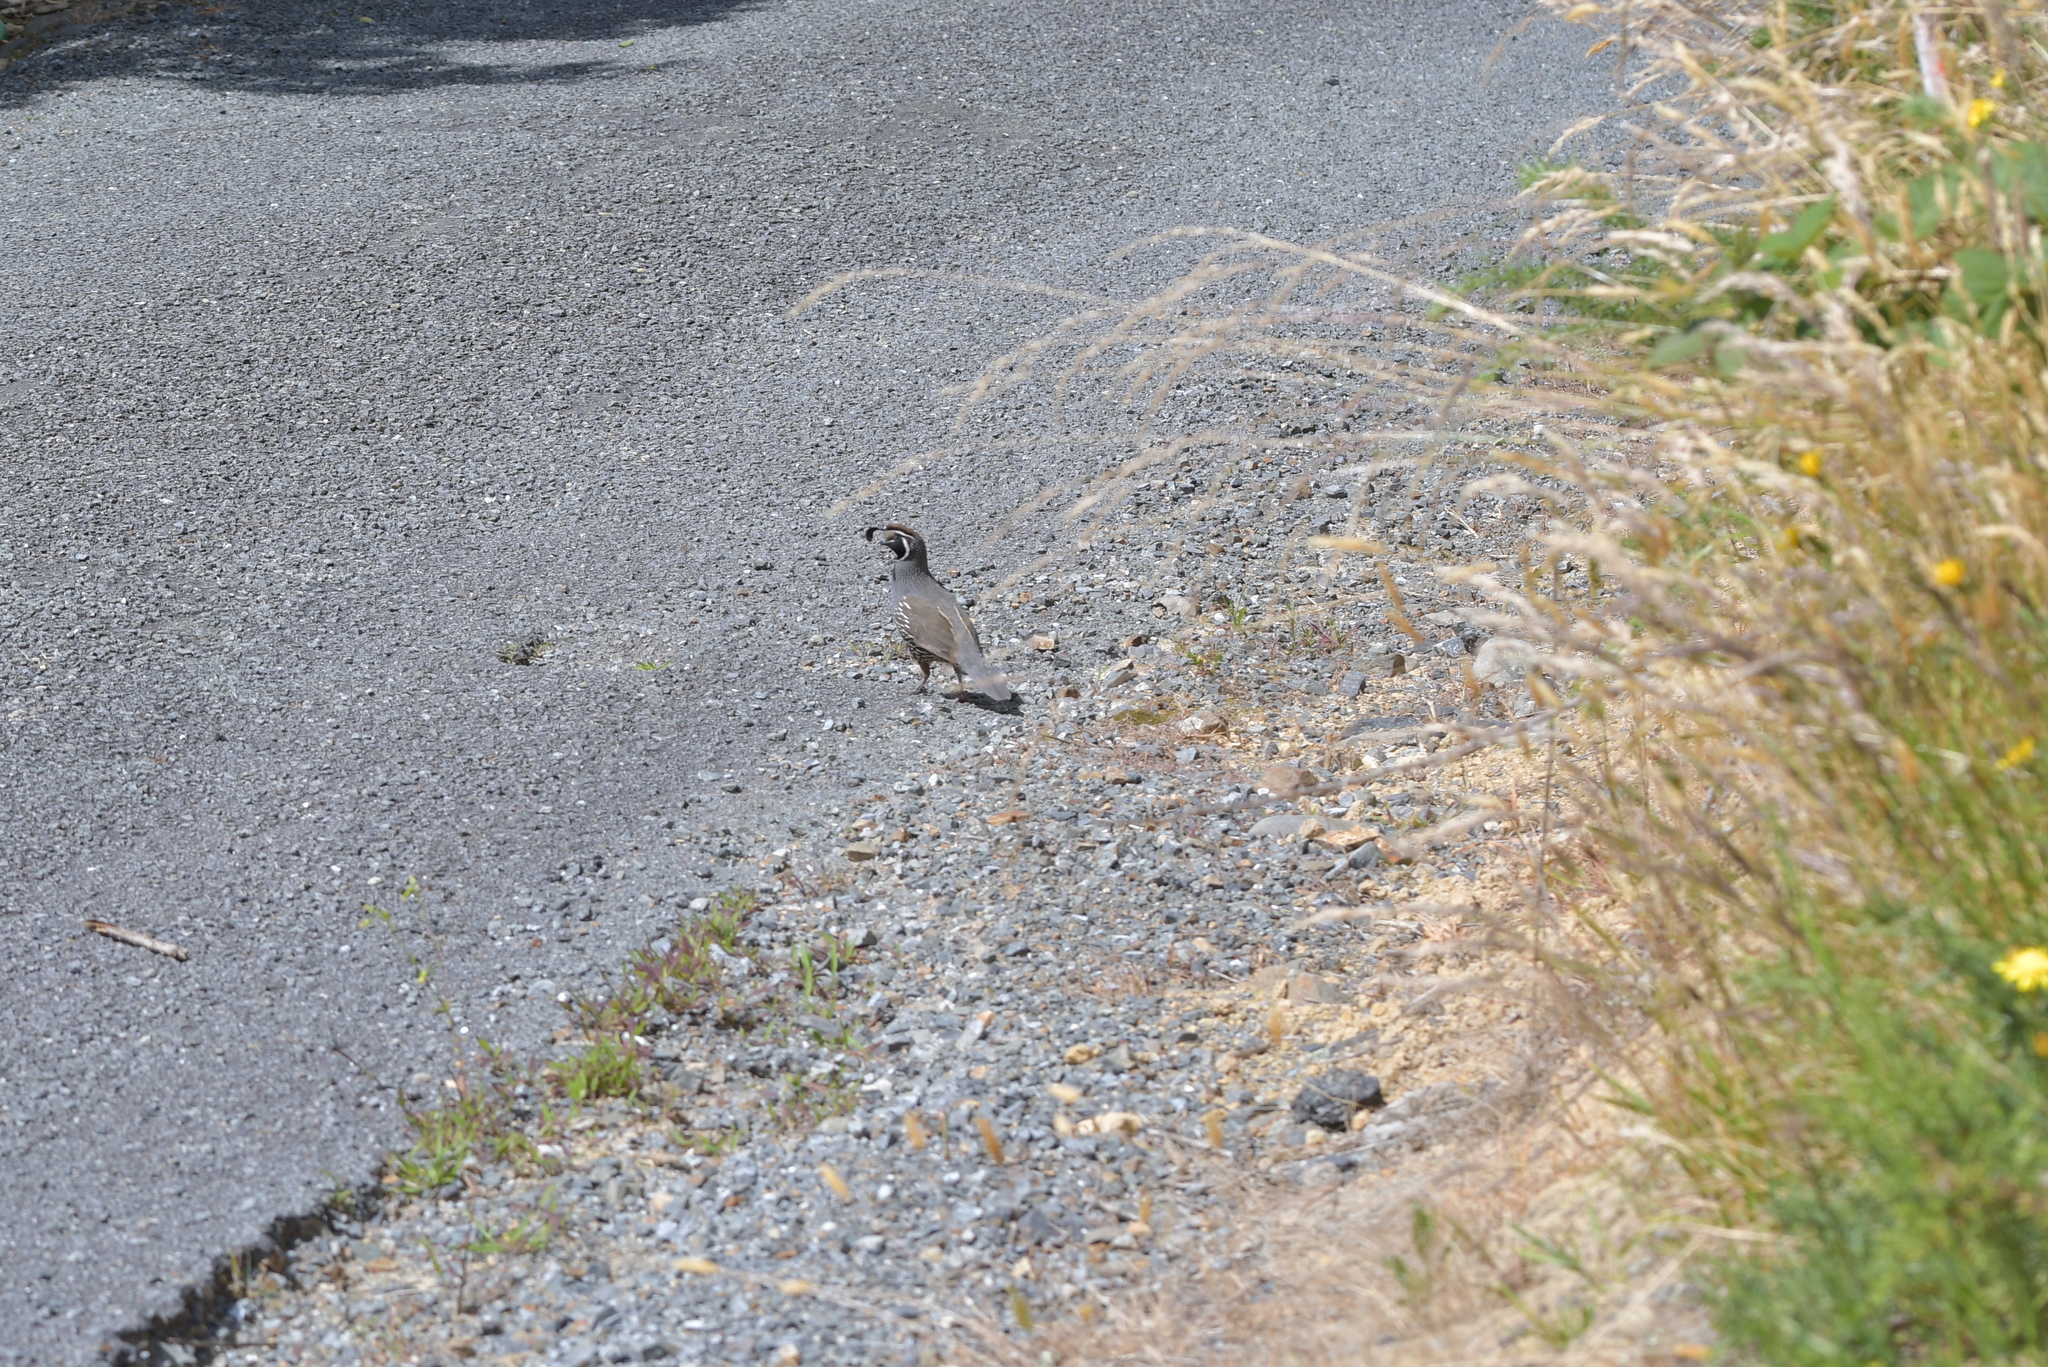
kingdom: Animalia
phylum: Chordata
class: Aves
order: Galliformes
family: Odontophoridae
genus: Callipepla
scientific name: Callipepla californica
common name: California quail
